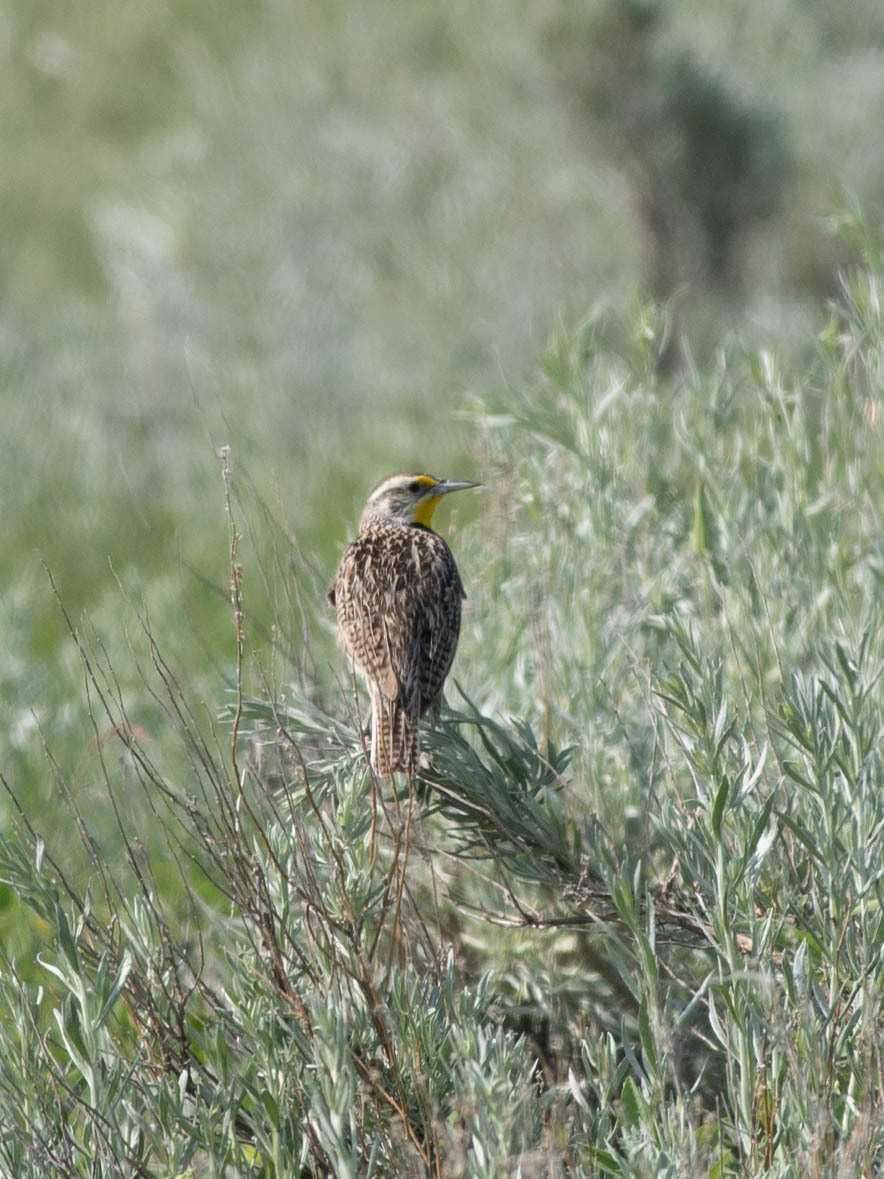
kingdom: Animalia
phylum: Chordata
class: Aves
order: Passeriformes
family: Icteridae
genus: Sturnella
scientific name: Sturnella neglecta
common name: Western meadowlark
